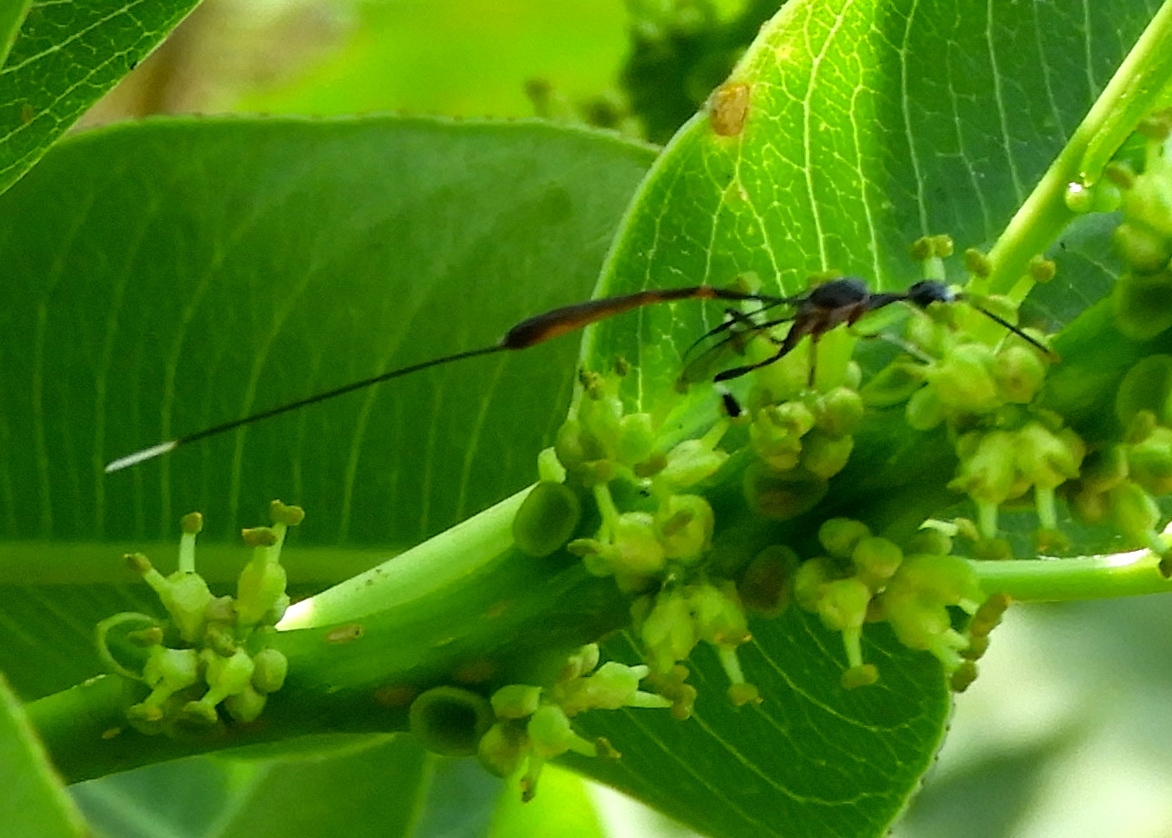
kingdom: Animalia
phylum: Arthropoda
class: Insecta
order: Hymenoptera
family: Gasteruptiidae
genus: Gasteruption
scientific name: Gasteruption
